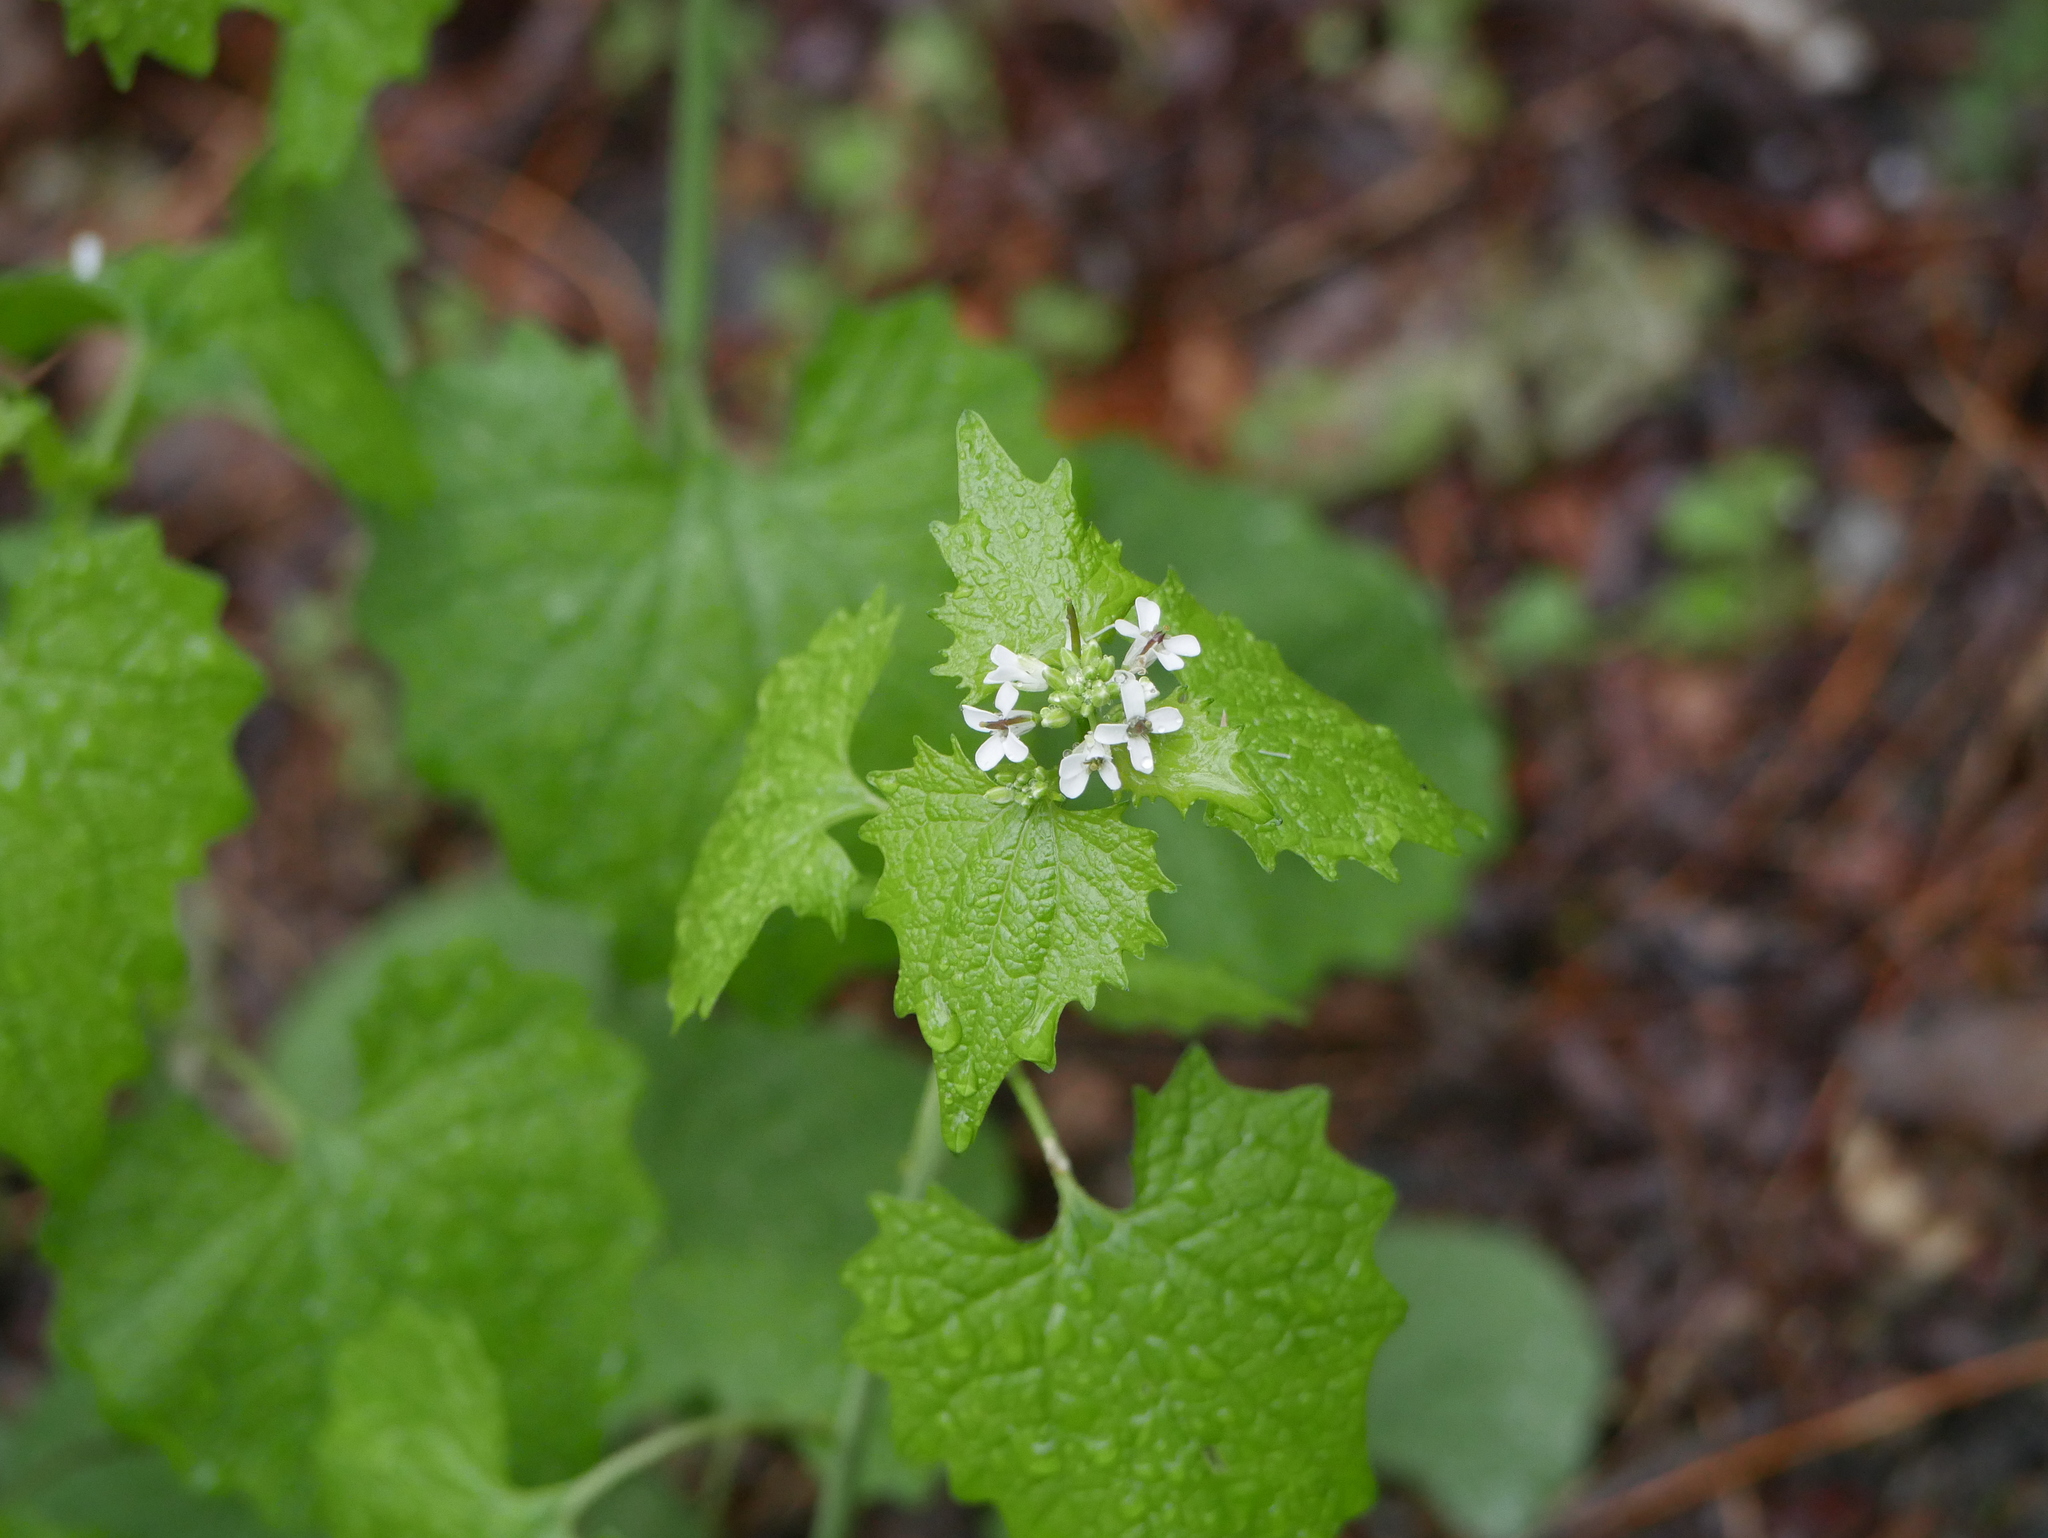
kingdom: Plantae
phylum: Tracheophyta
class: Magnoliopsida
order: Brassicales
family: Brassicaceae
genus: Alliaria
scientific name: Alliaria petiolata
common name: Garlic mustard
